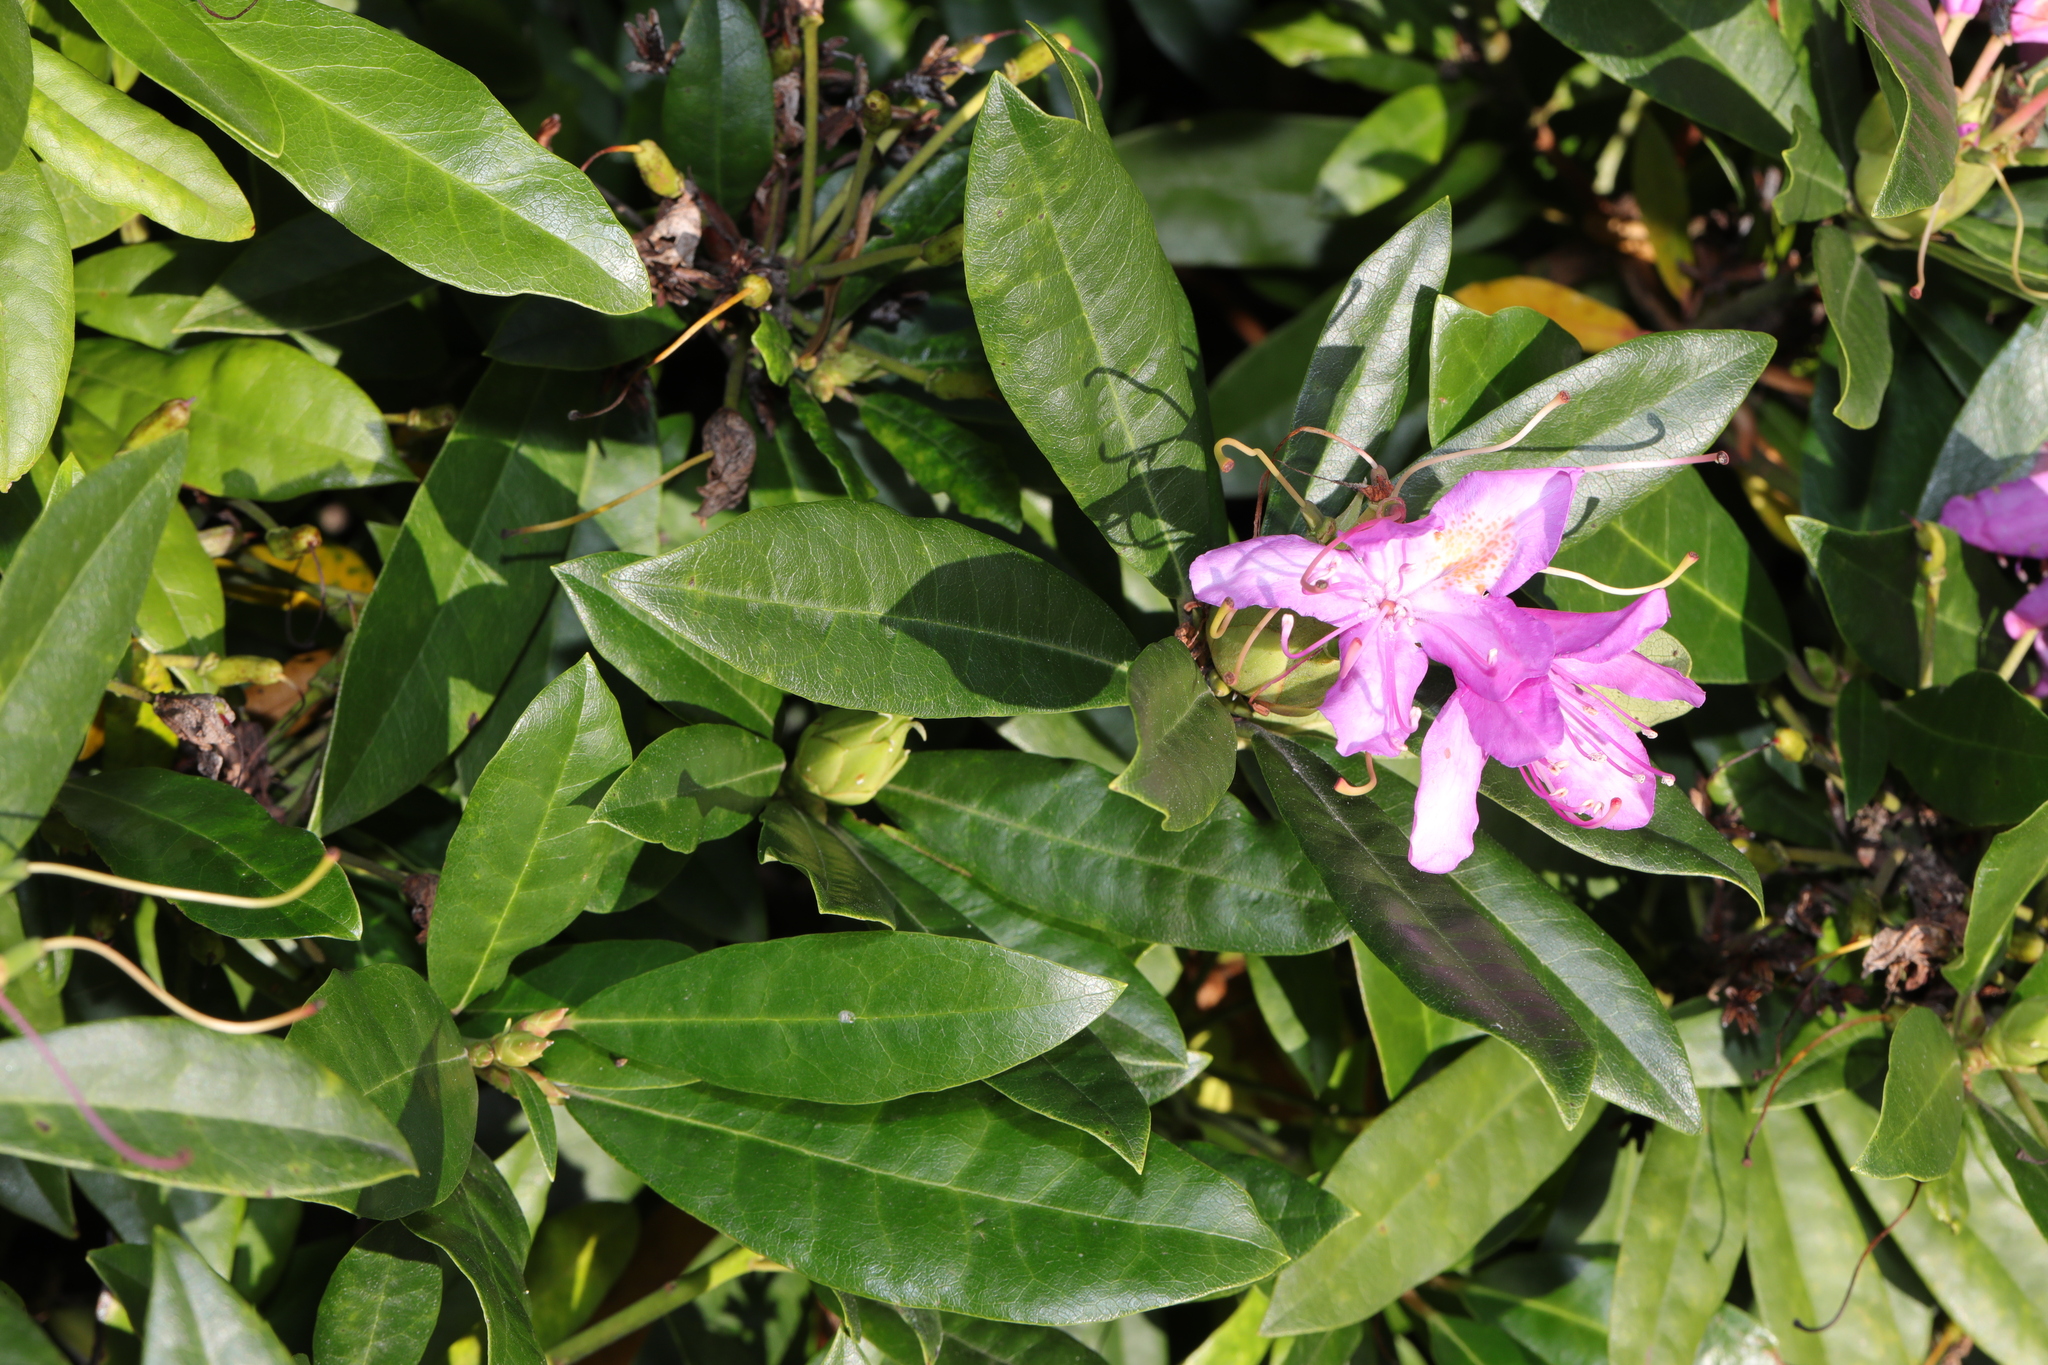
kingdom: Plantae
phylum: Tracheophyta
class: Magnoliopsida
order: Ericales
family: Ericaceae
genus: Rhododendron
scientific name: Rhododendron ponticum
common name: Rhododendron
